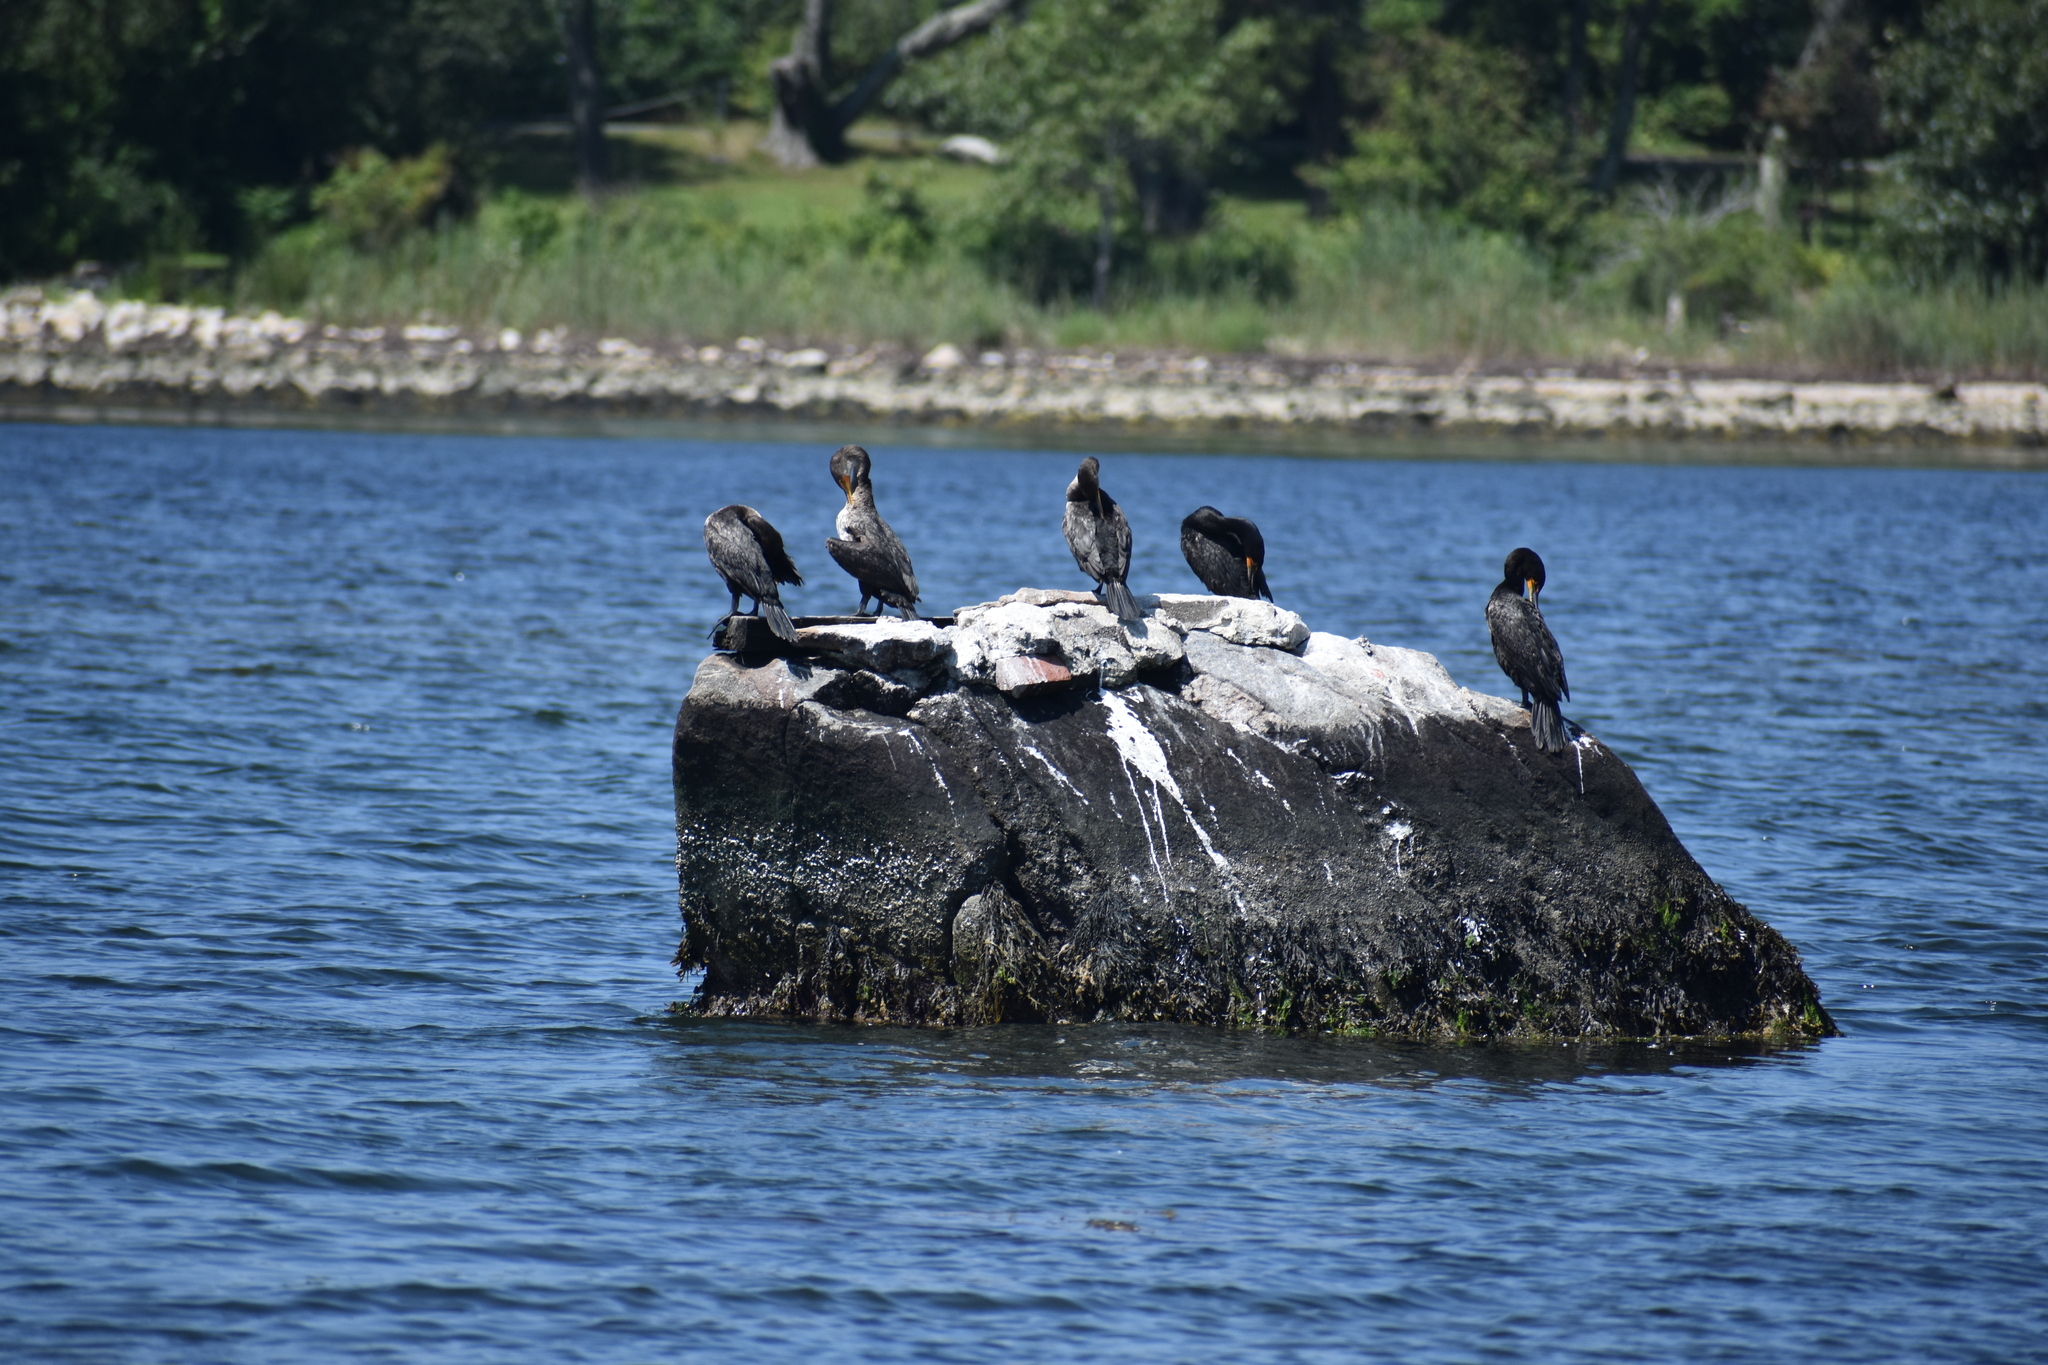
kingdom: Animalia
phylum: Chordata
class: Aves
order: Suliformes
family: Phalacrocoracidae
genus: Phalacrocorax
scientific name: Phalacrocorax auritus
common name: Double-crested cormorant
